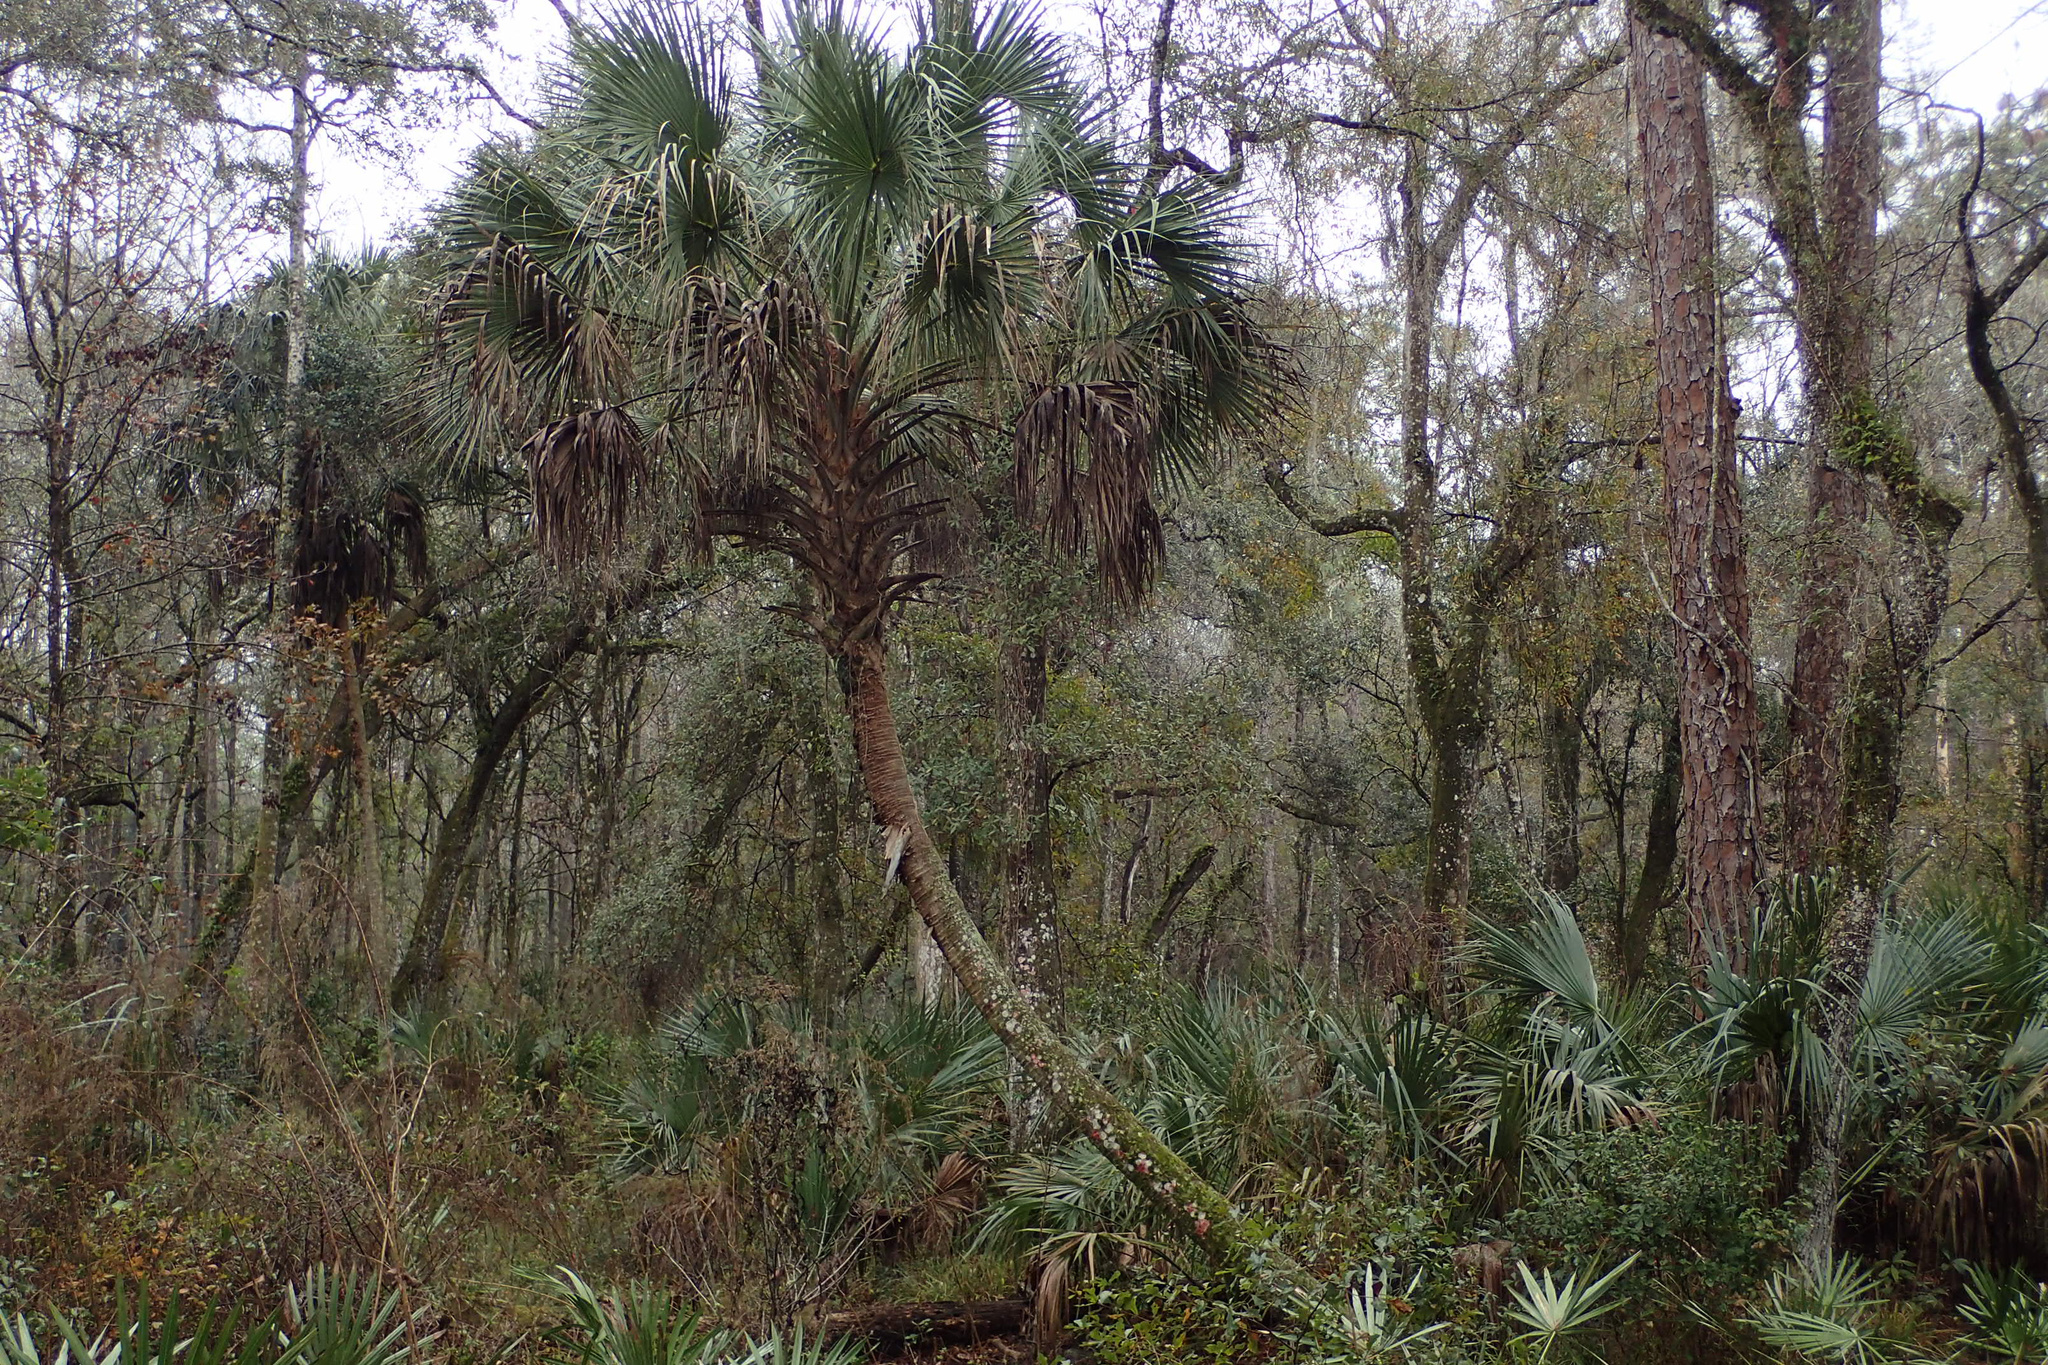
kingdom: Plantae
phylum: Tracheophyta
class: Liliopsida
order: Arecales
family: Arecaceae
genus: Sabal
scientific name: Sabal palmetto
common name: Blue palmetto
